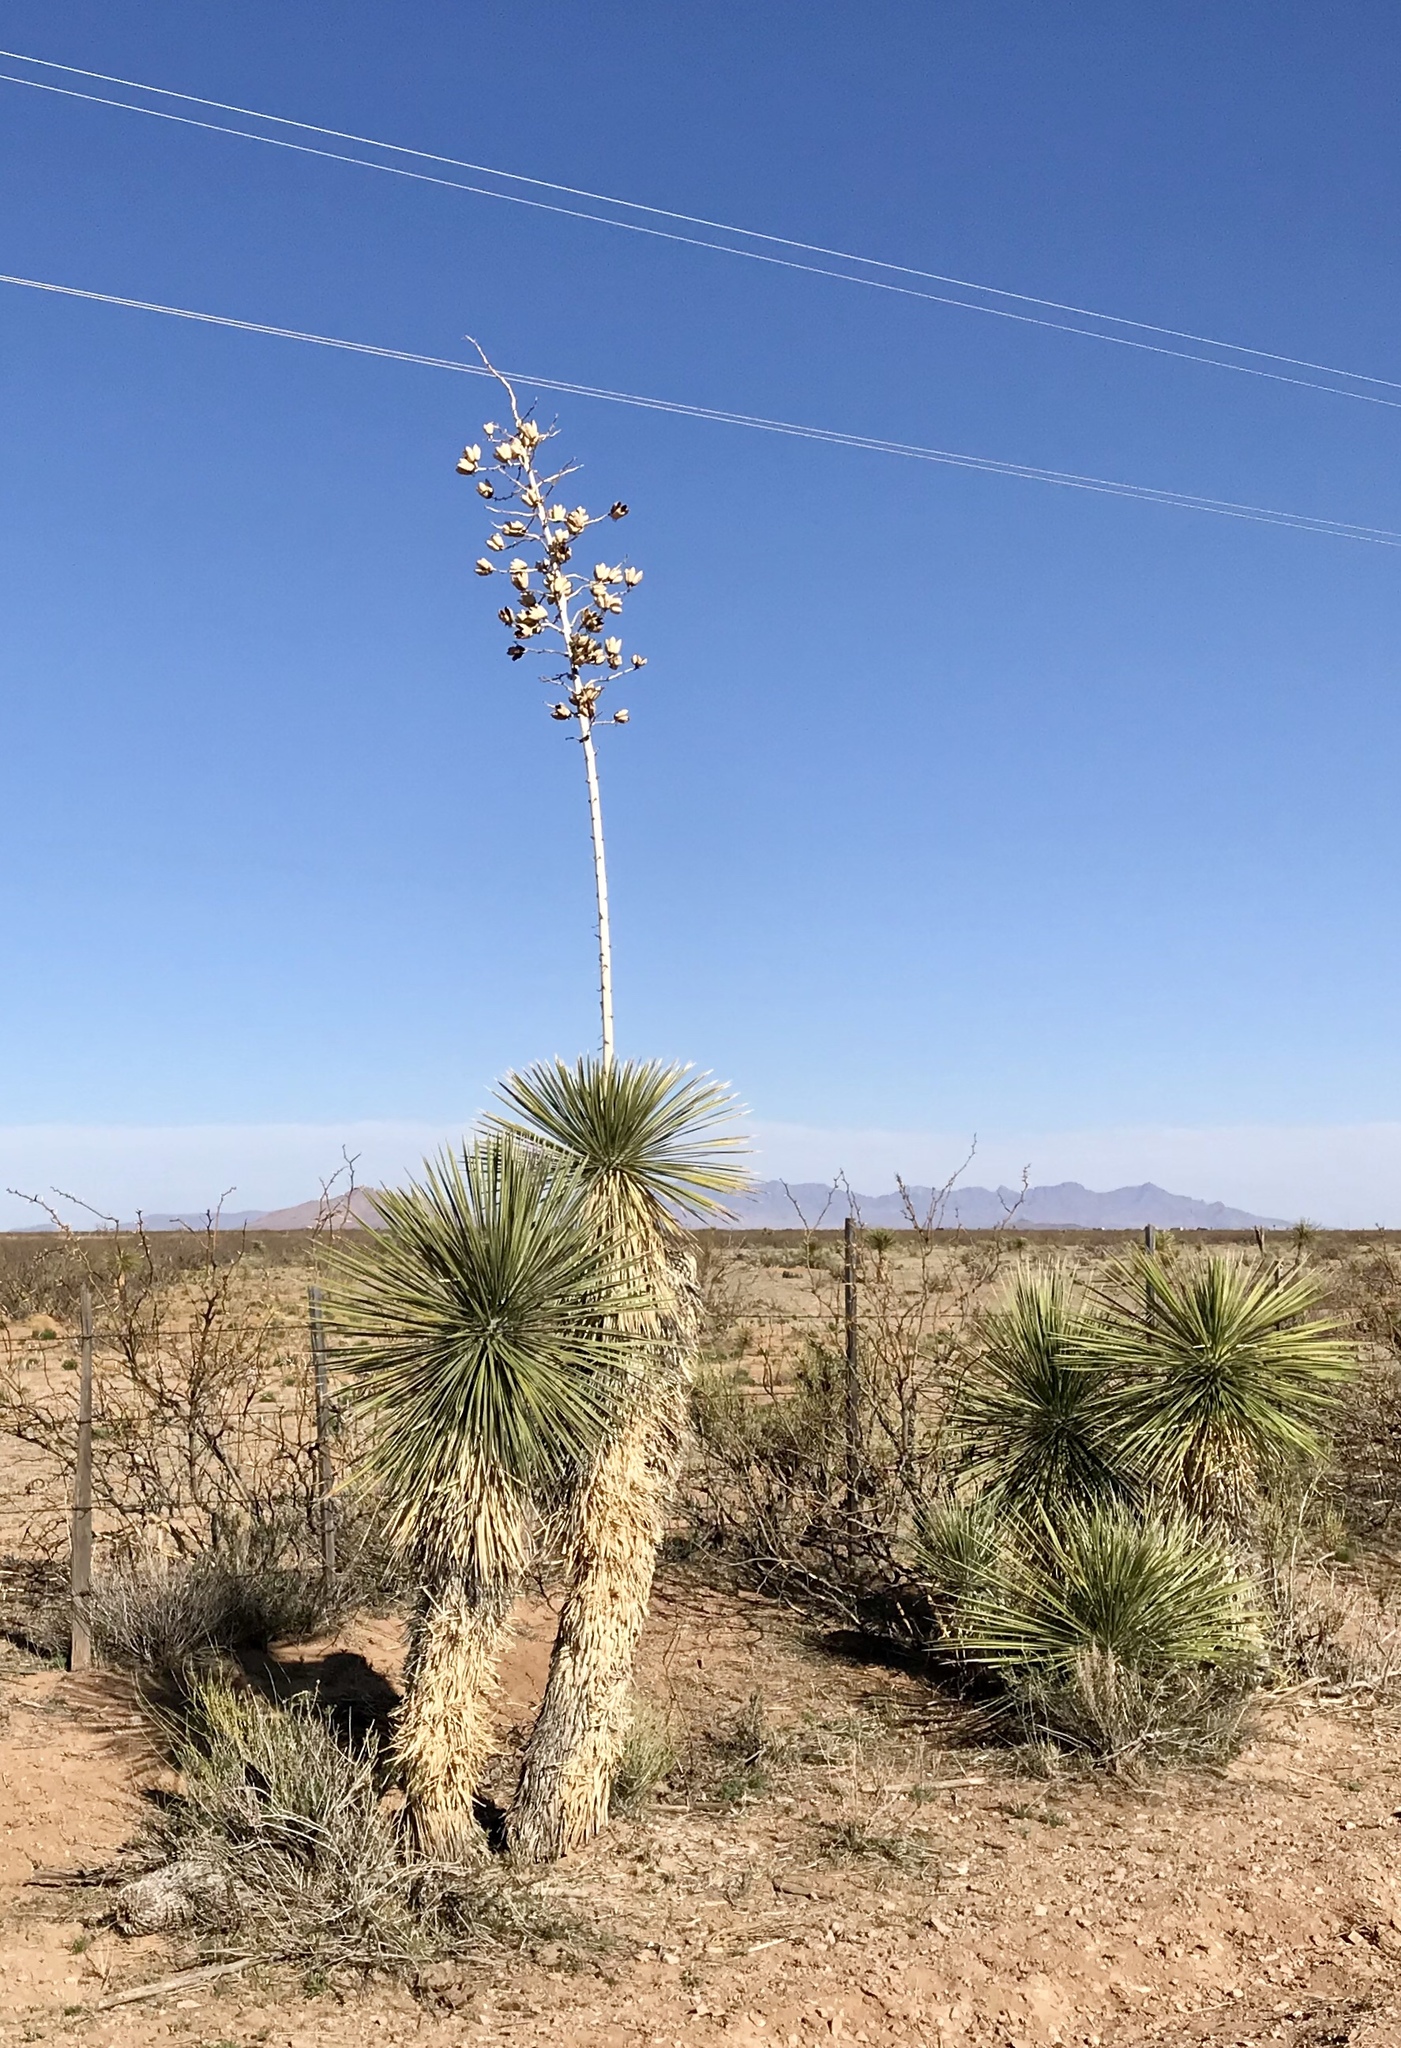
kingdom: Plantae
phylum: Tracheophyta
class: Liliopsida
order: Asparagales
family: Asparagaceae
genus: Yucca
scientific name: Yucca elata
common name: Palmella
